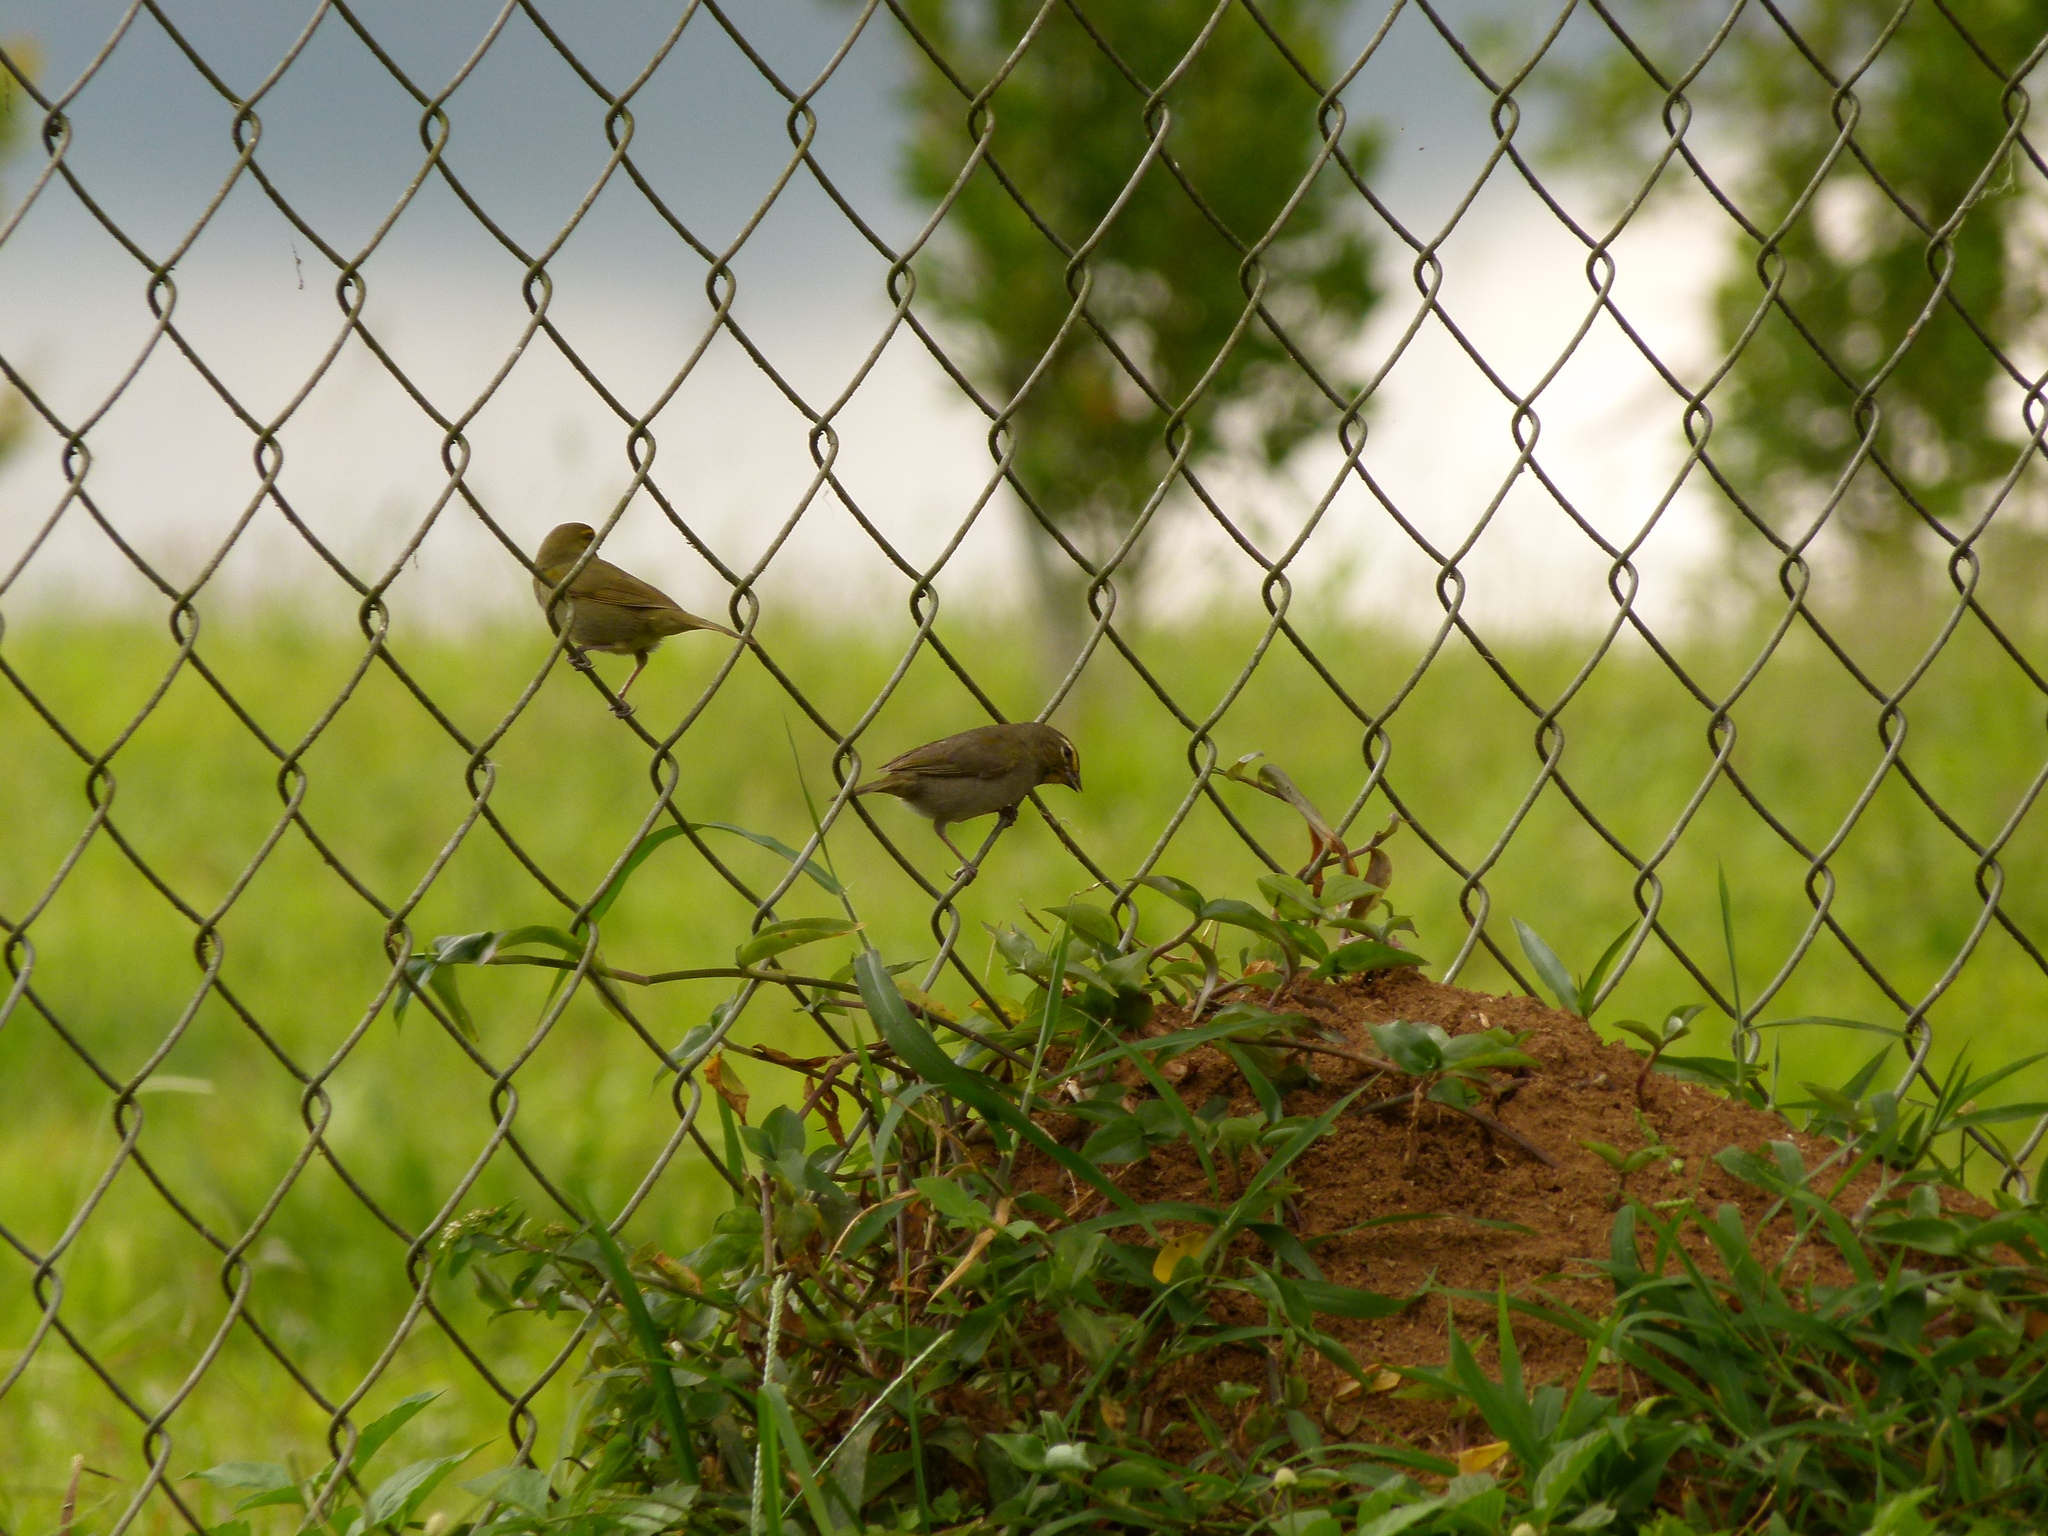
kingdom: Animalia
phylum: Chordata
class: Aves
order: Passeriformes
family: Thraupidae
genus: Tiaris
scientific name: Tiaris olivaceus
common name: Yellow-faced grassquit
